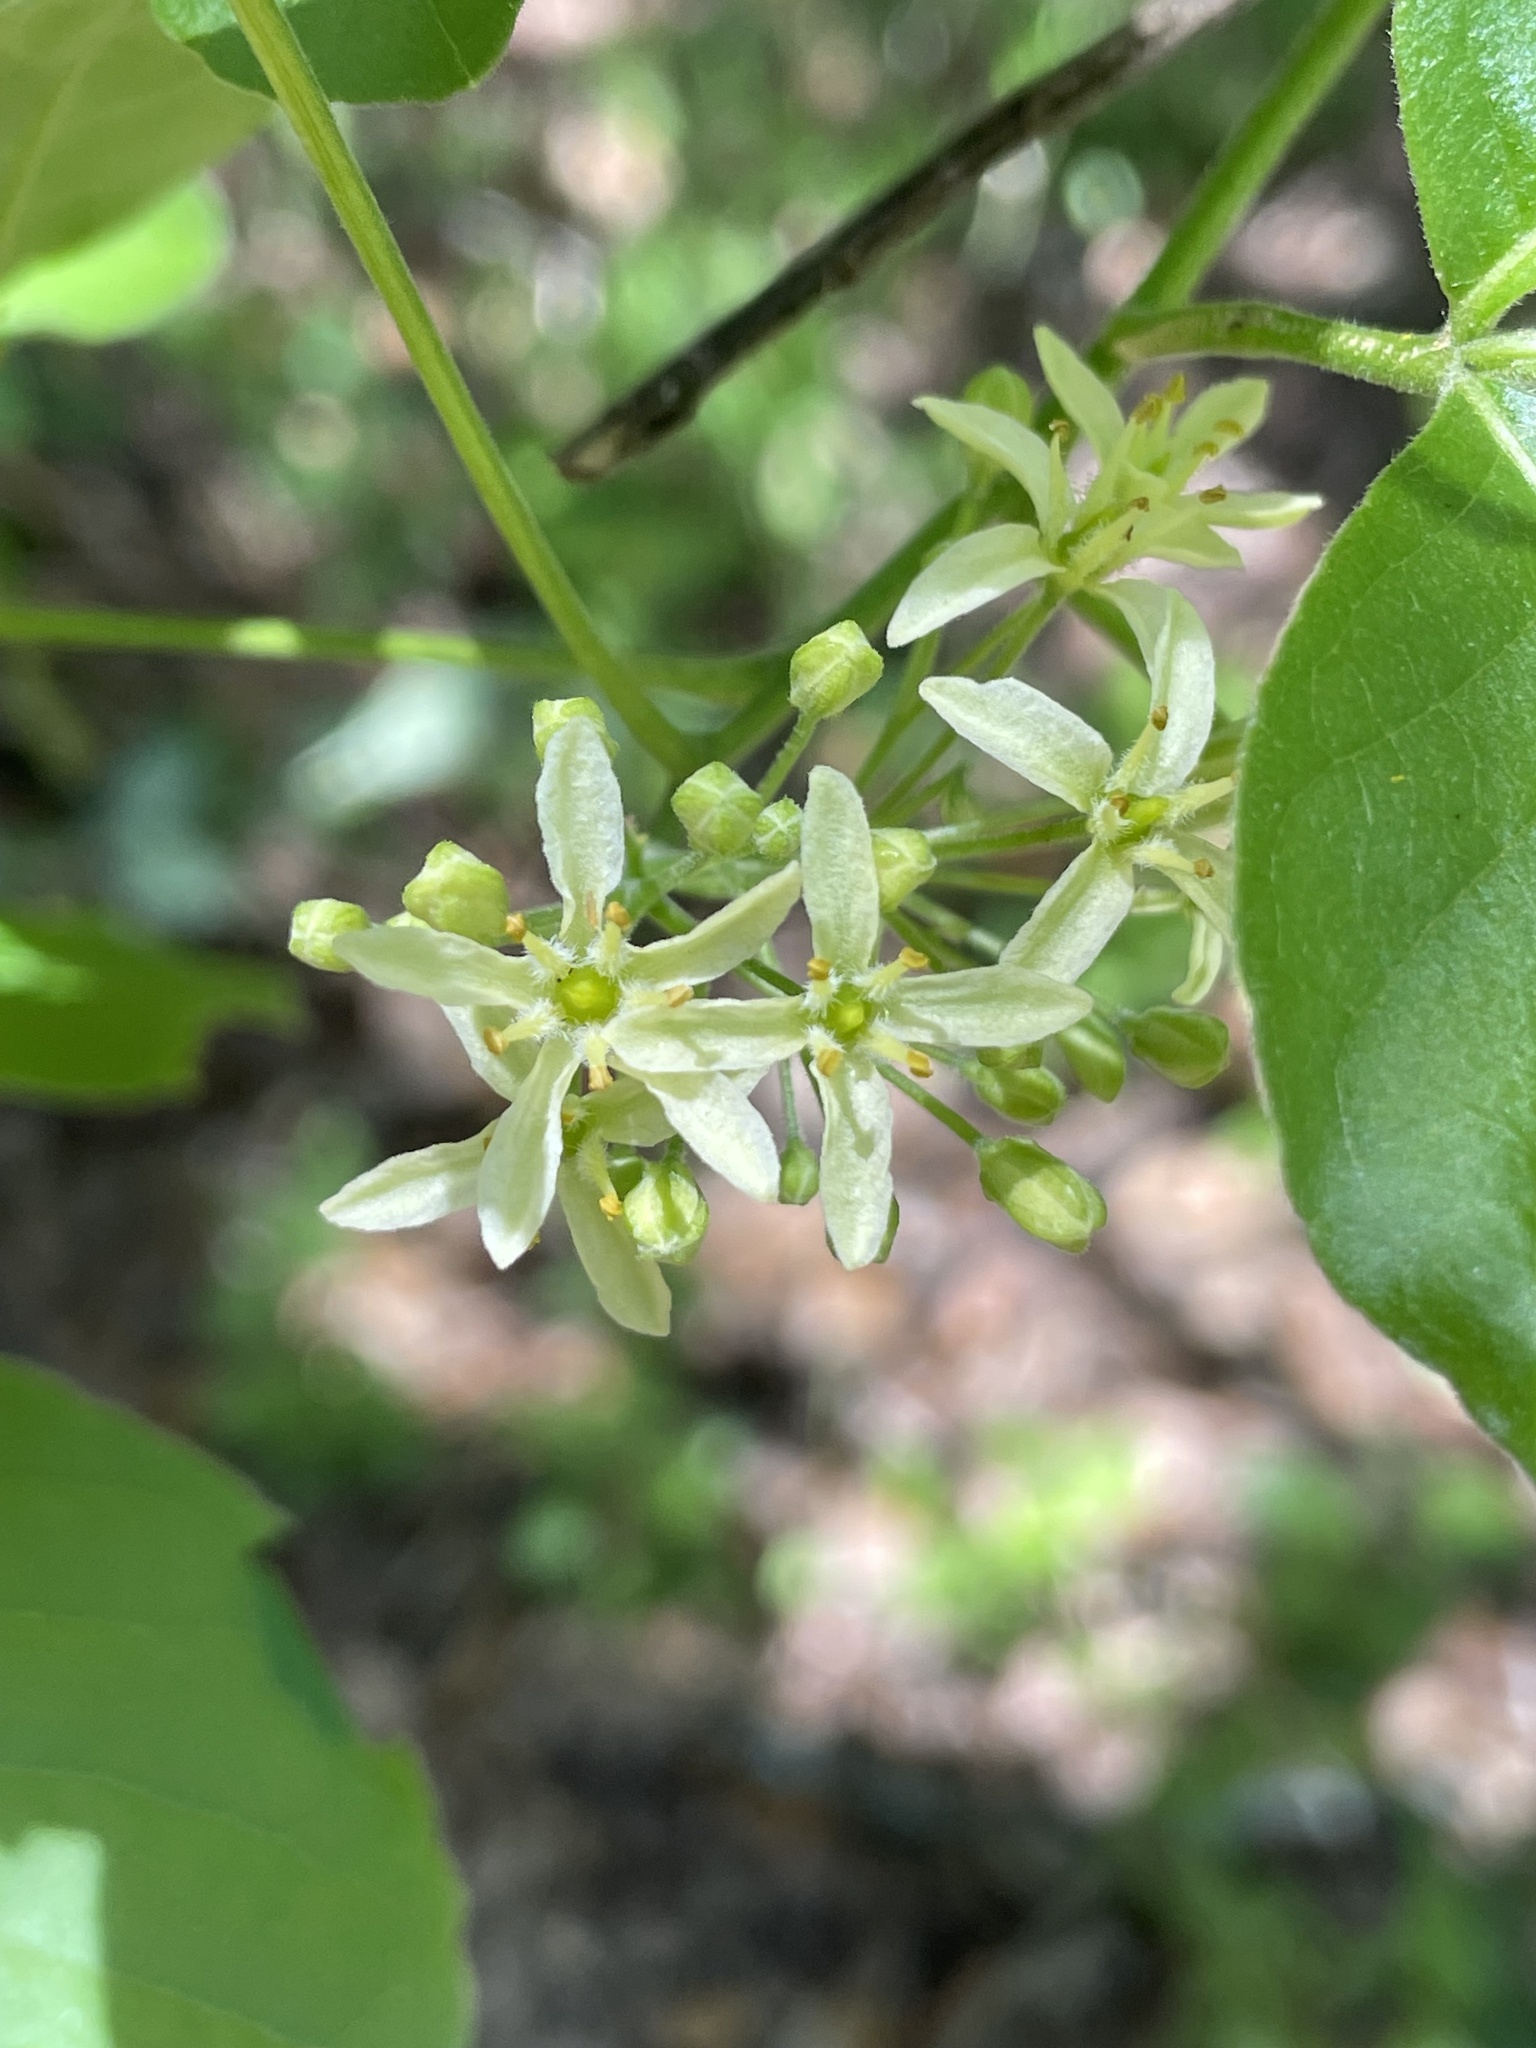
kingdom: Plantae
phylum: Tracheophyta
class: Magnoliopsida
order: Sapindales
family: Rutaceae
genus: Ptelea
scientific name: Ptelea trifoliata
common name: Common hop-tree
